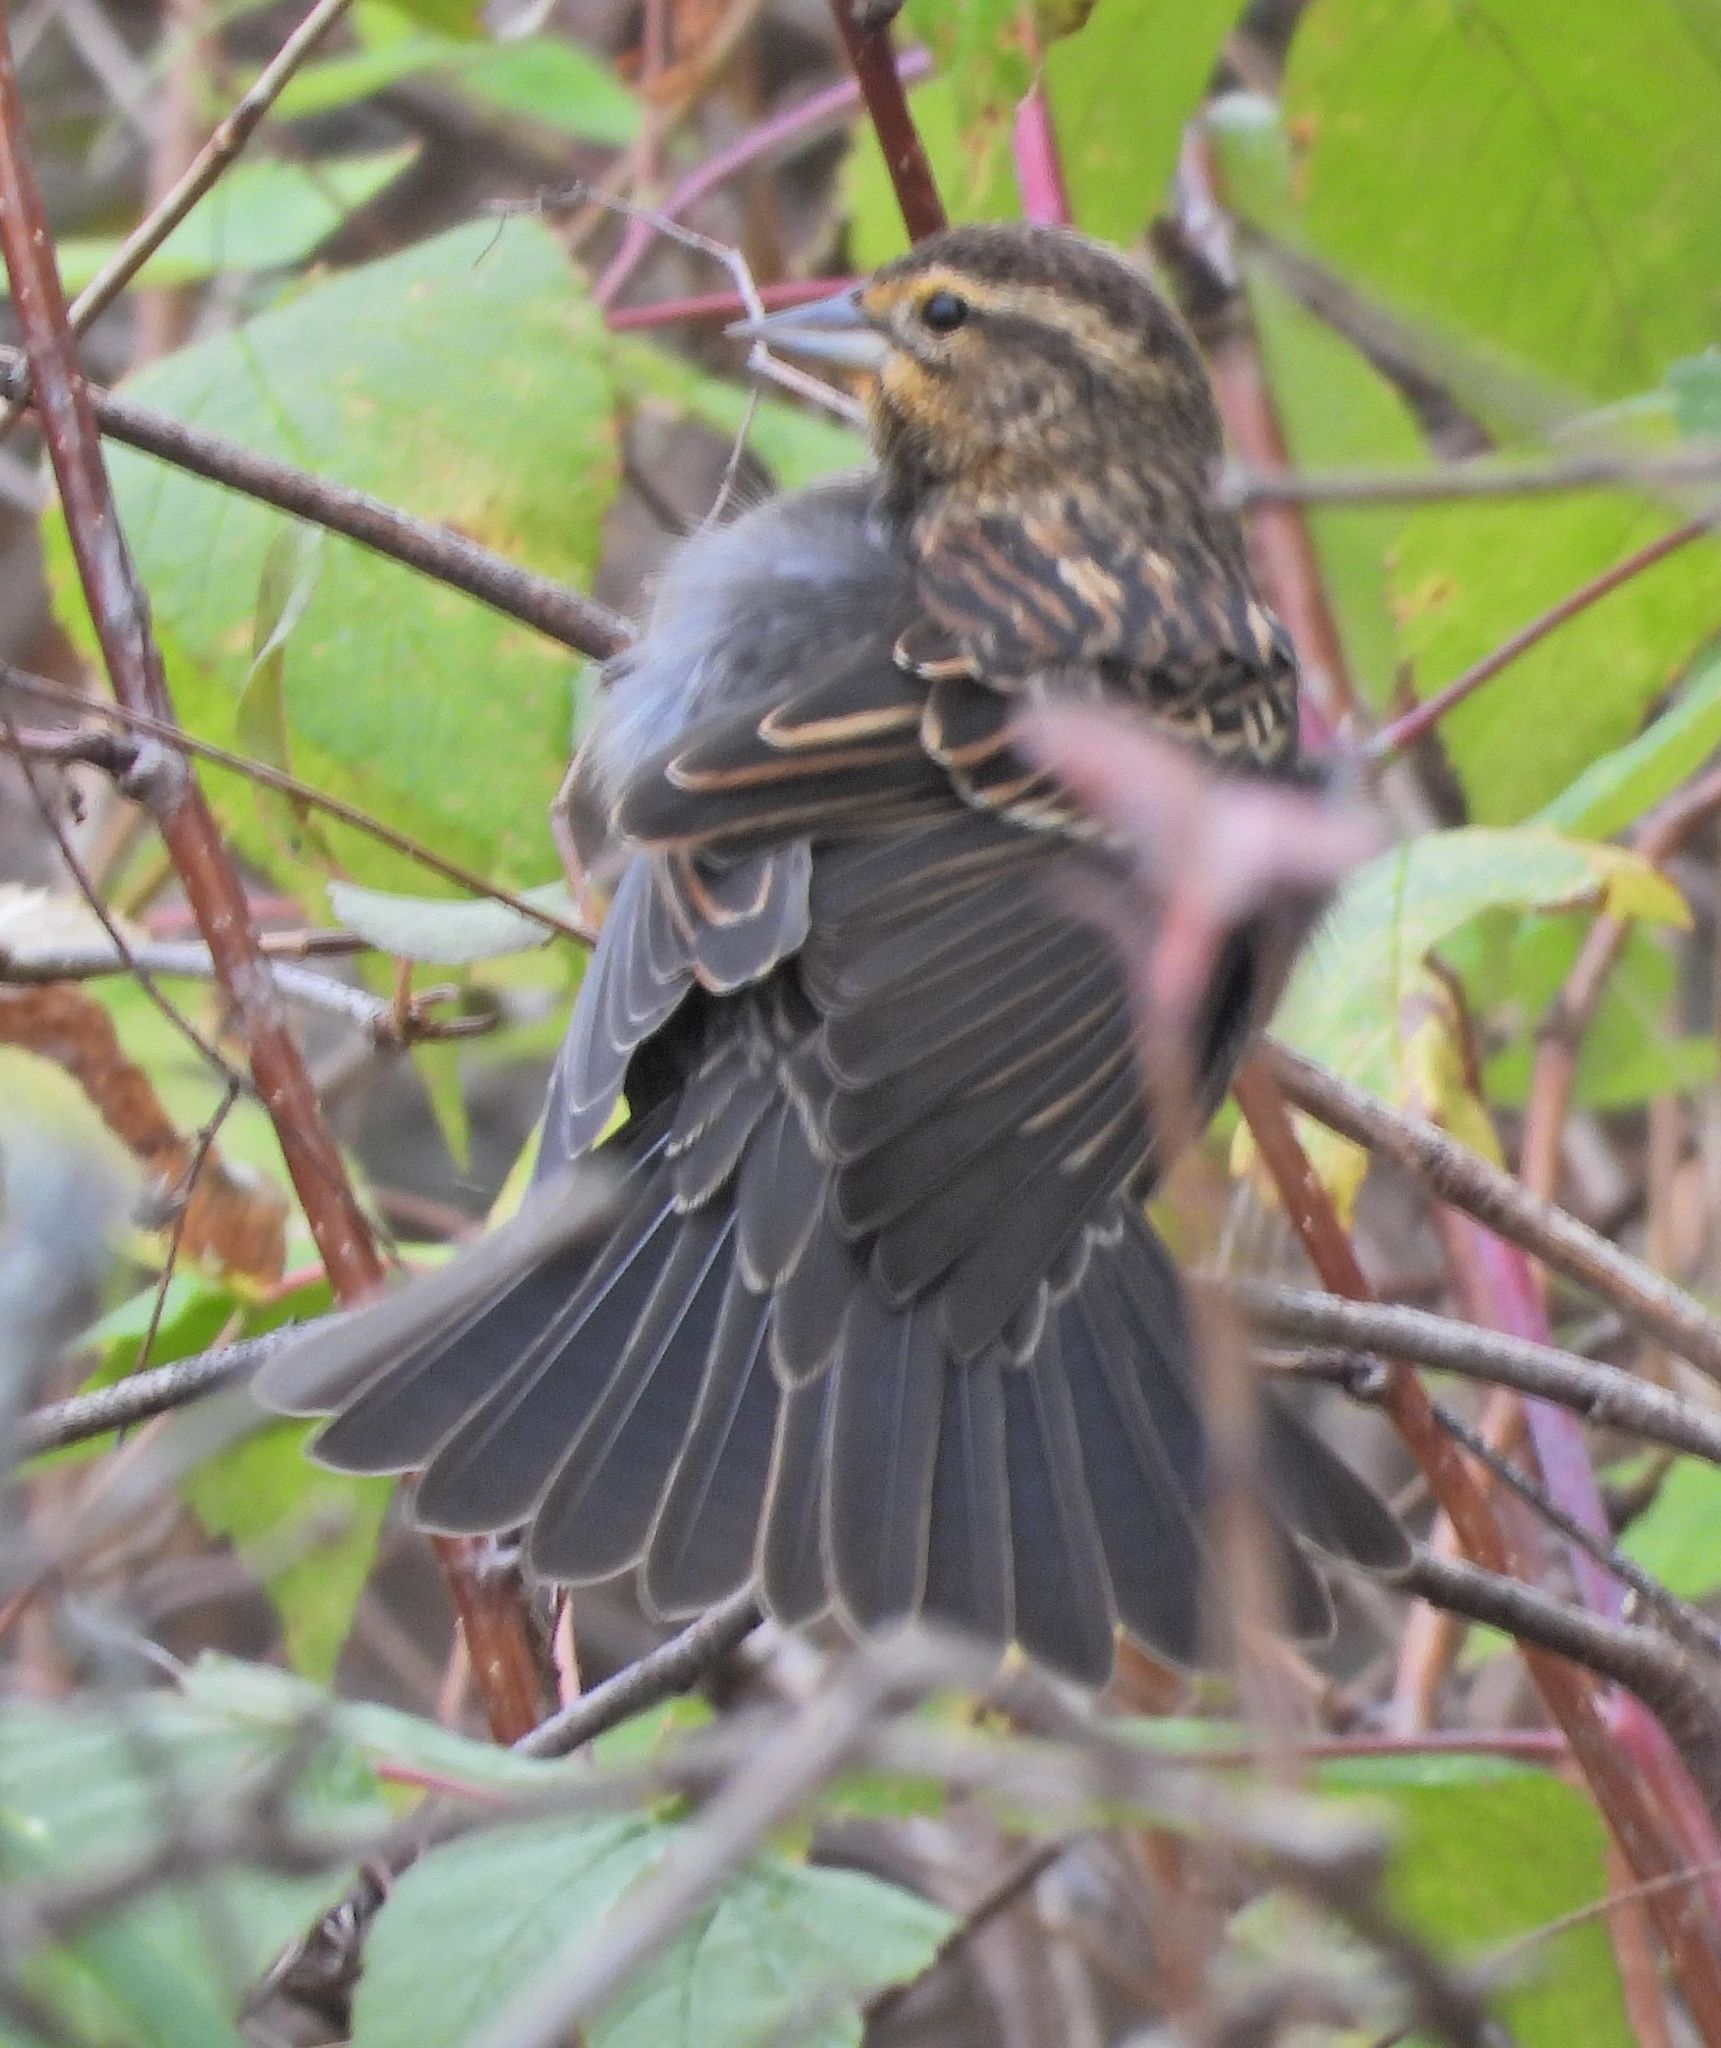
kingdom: Animalia
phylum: Chordata
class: Aves
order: Passeriformes
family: Icteridae
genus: Agelaius
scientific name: Agelaius phoeniceus
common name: Red-winged blackbird
